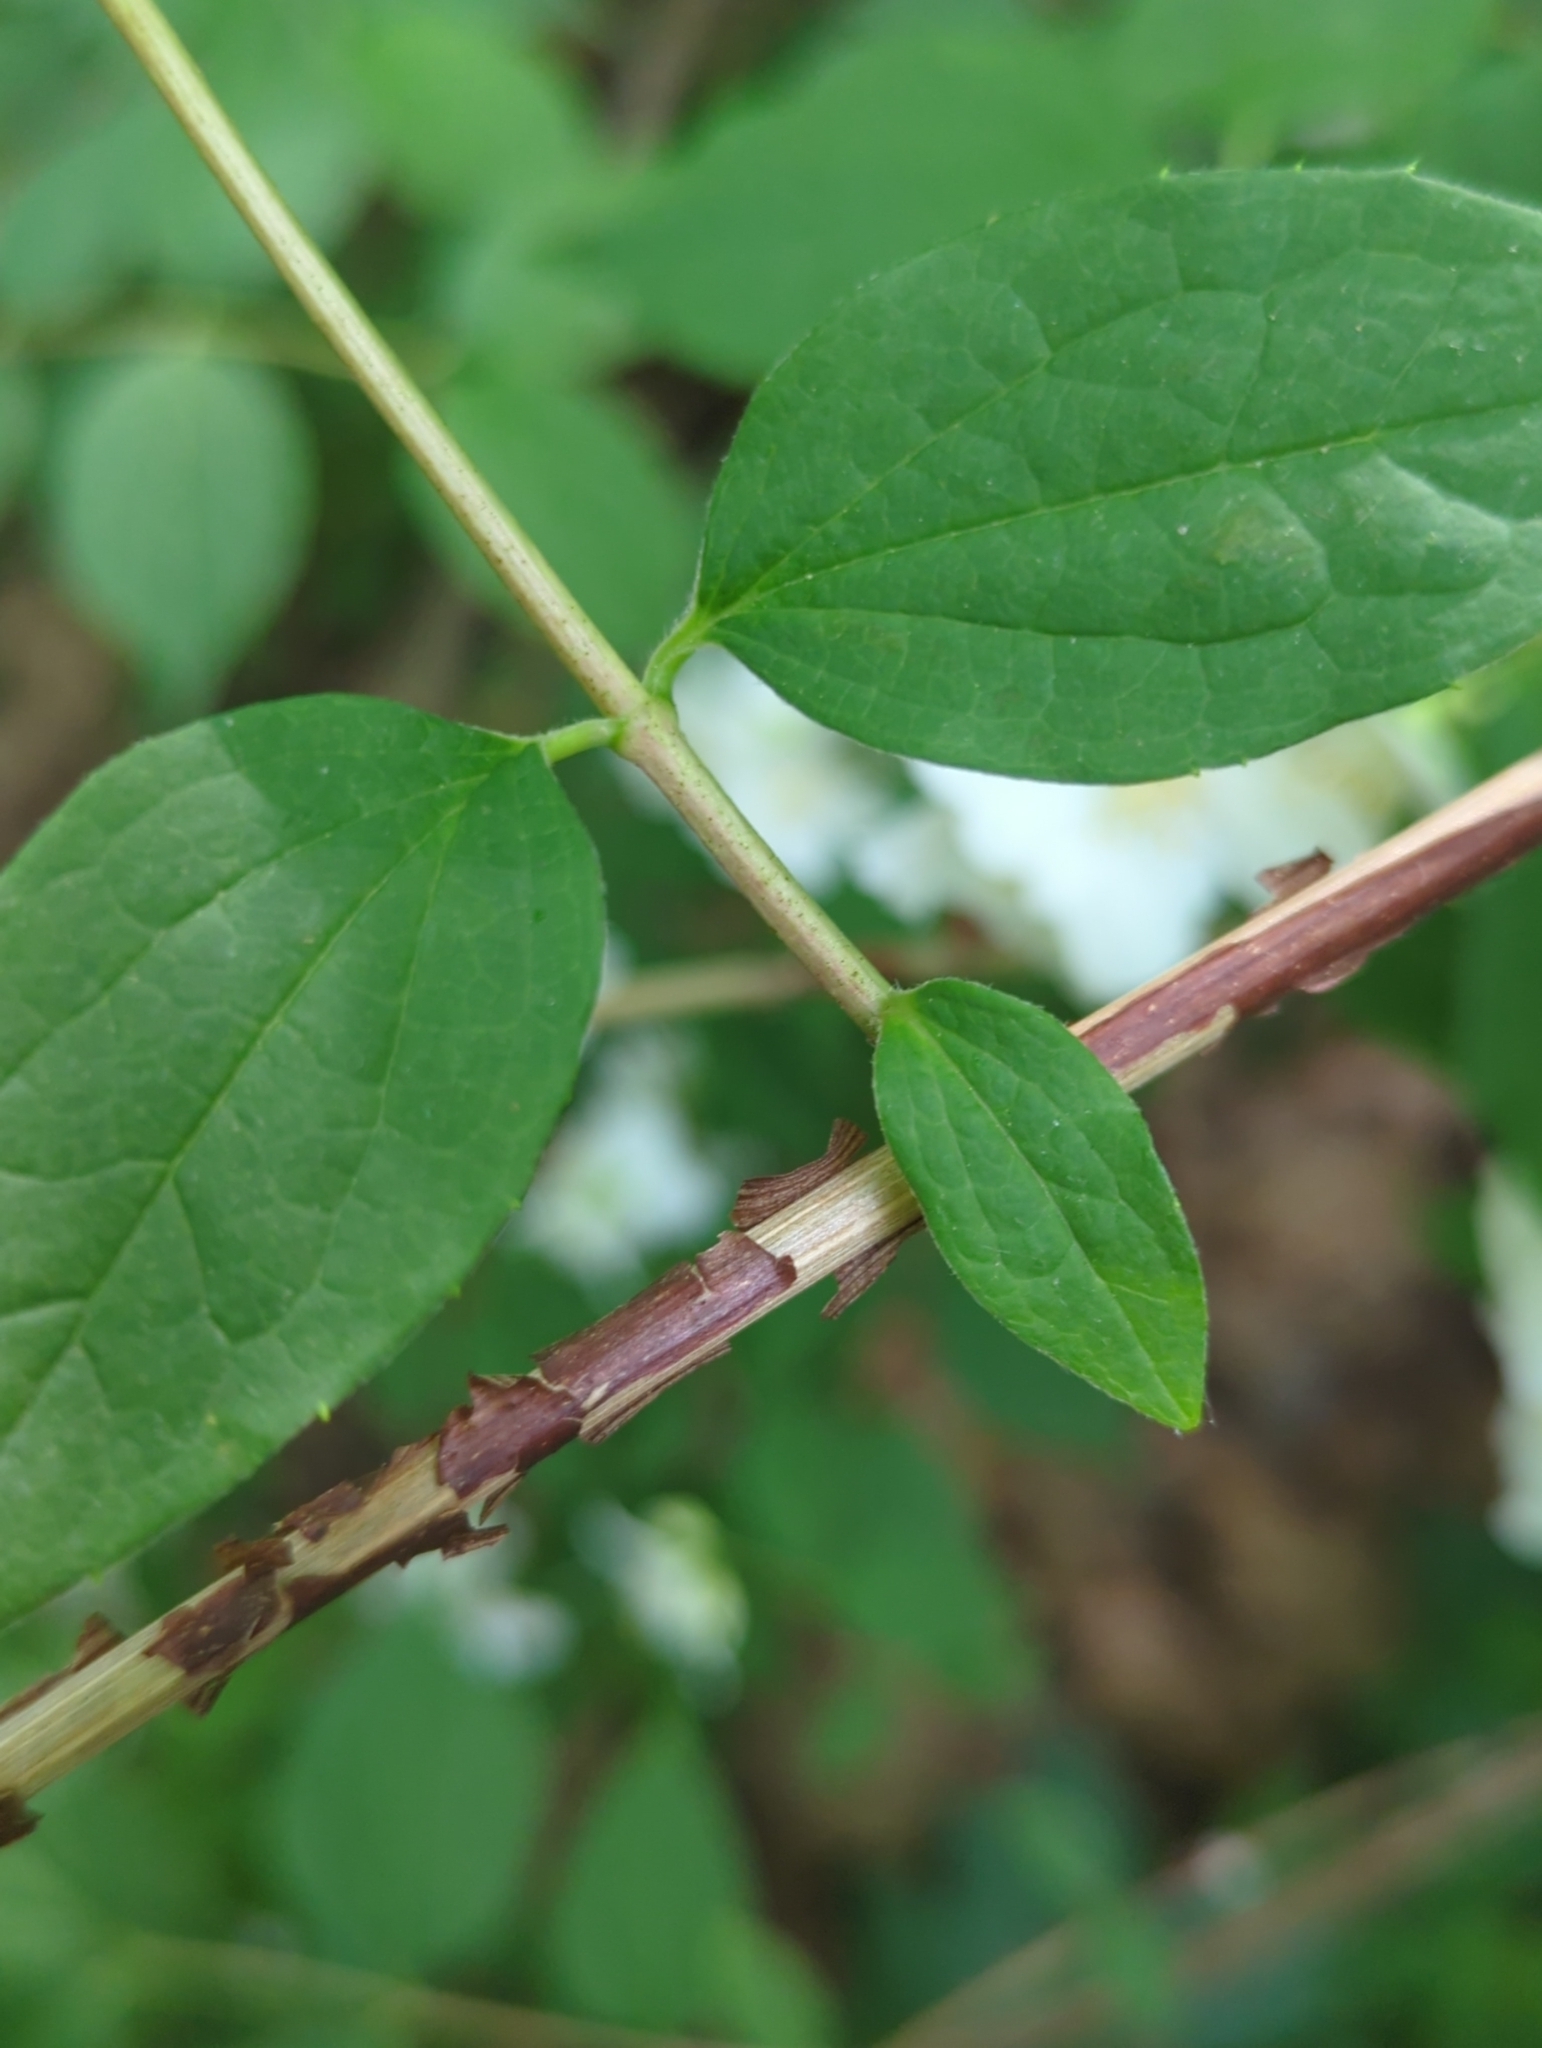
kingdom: Plantae
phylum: Tracheophyta
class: Magnoliopsida
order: Cornales
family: Hydrangeaceae
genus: Philadelphus
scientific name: Philadelphus coronarius
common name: Mock orange
